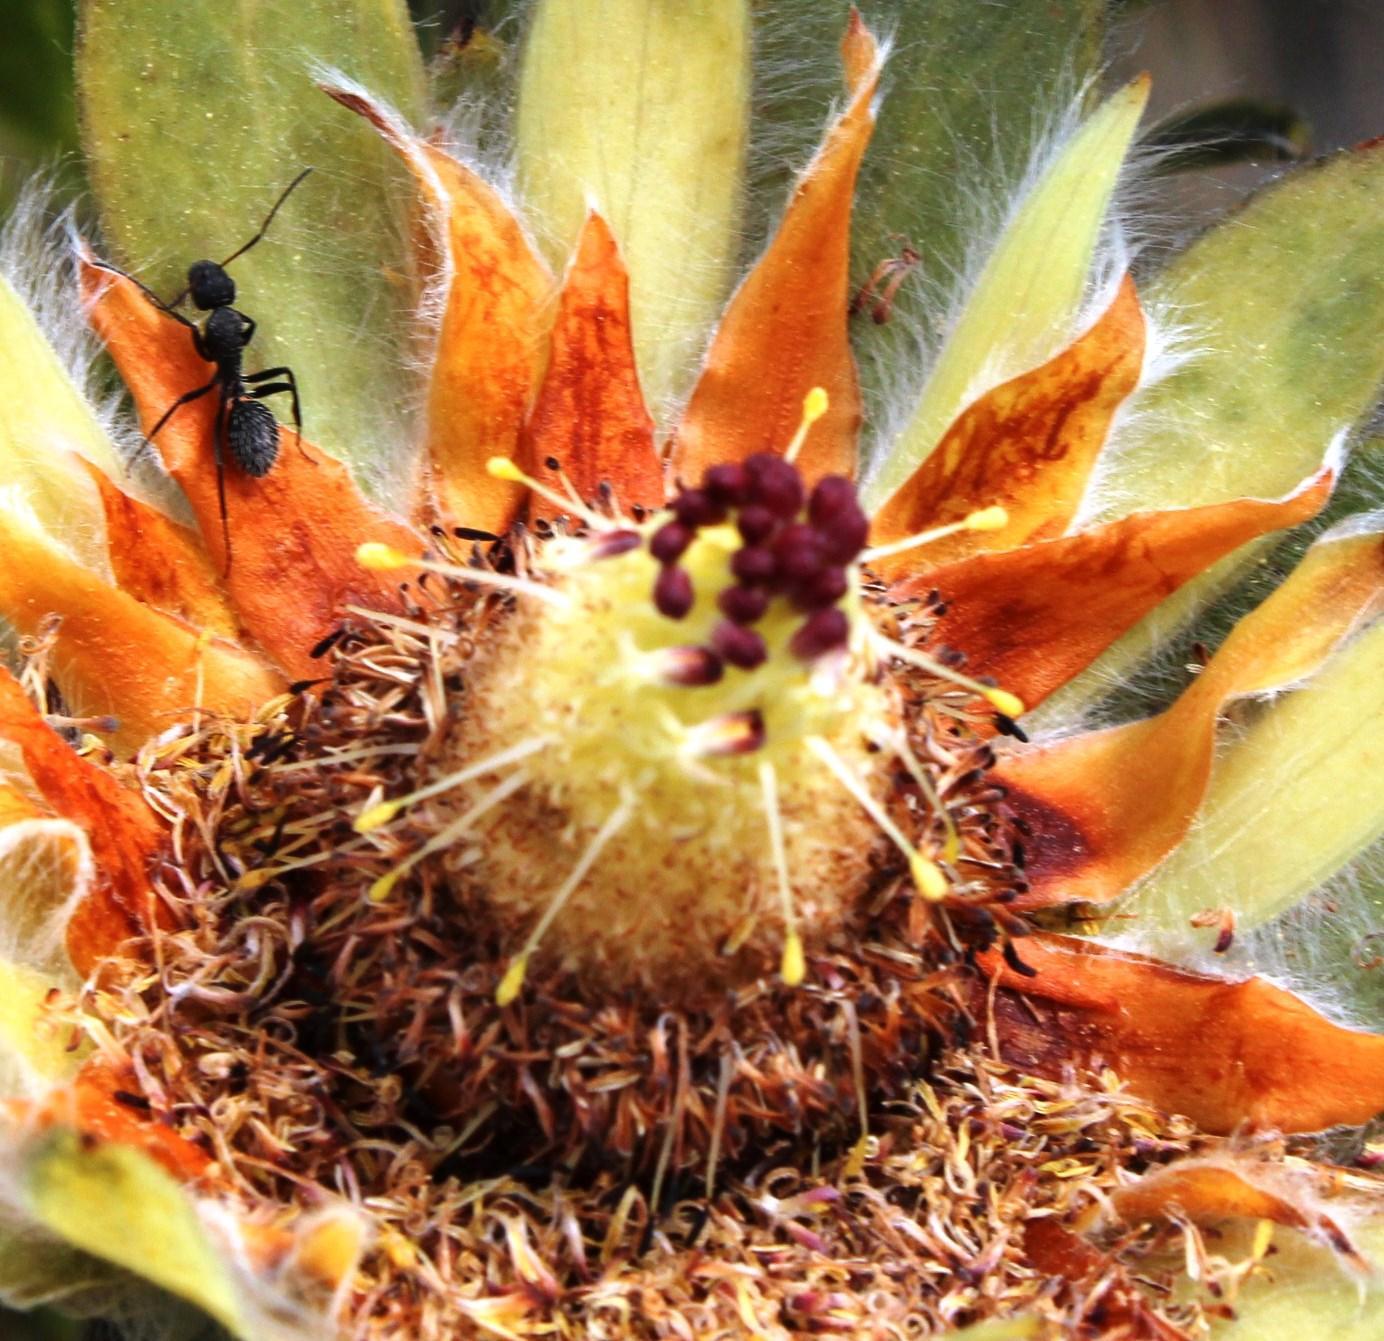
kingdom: Animalia
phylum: Arthropoda
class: Insecta
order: Hymenoptera
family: Formicidae
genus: Camponotus
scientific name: Camponotus niveosetosus
